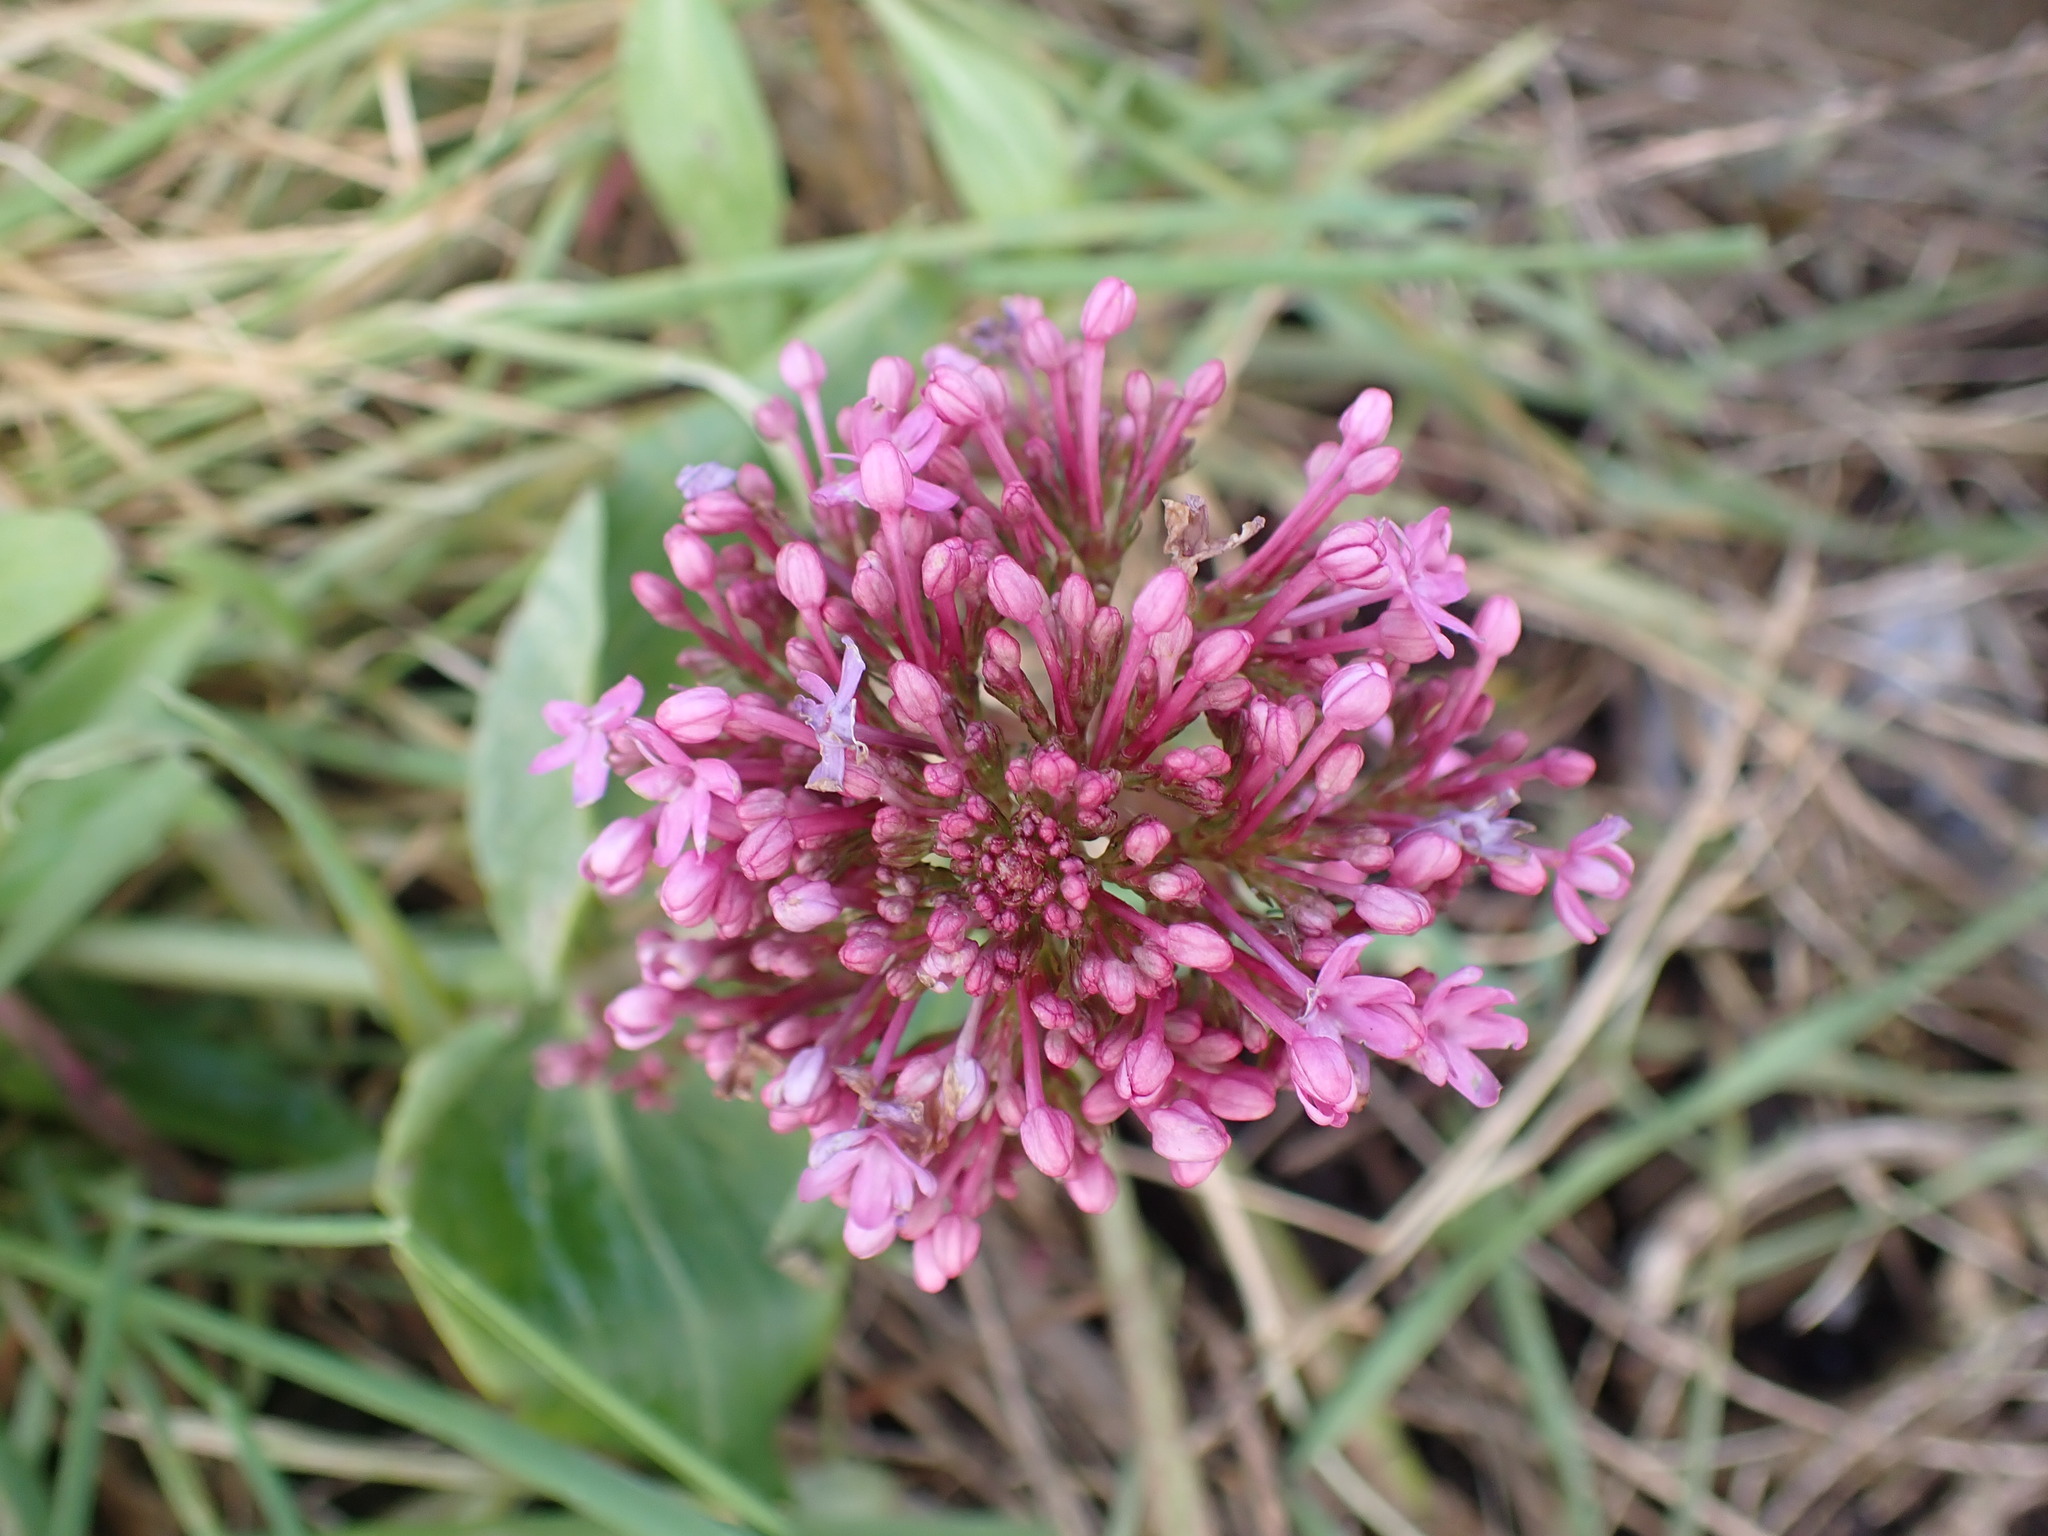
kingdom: Plantae
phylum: Tracheophyta
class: Magnoliopsida
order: Dipsacales
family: Caprifoliaceae
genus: Centranthus
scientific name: Centranthus ruber
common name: Red valerian
